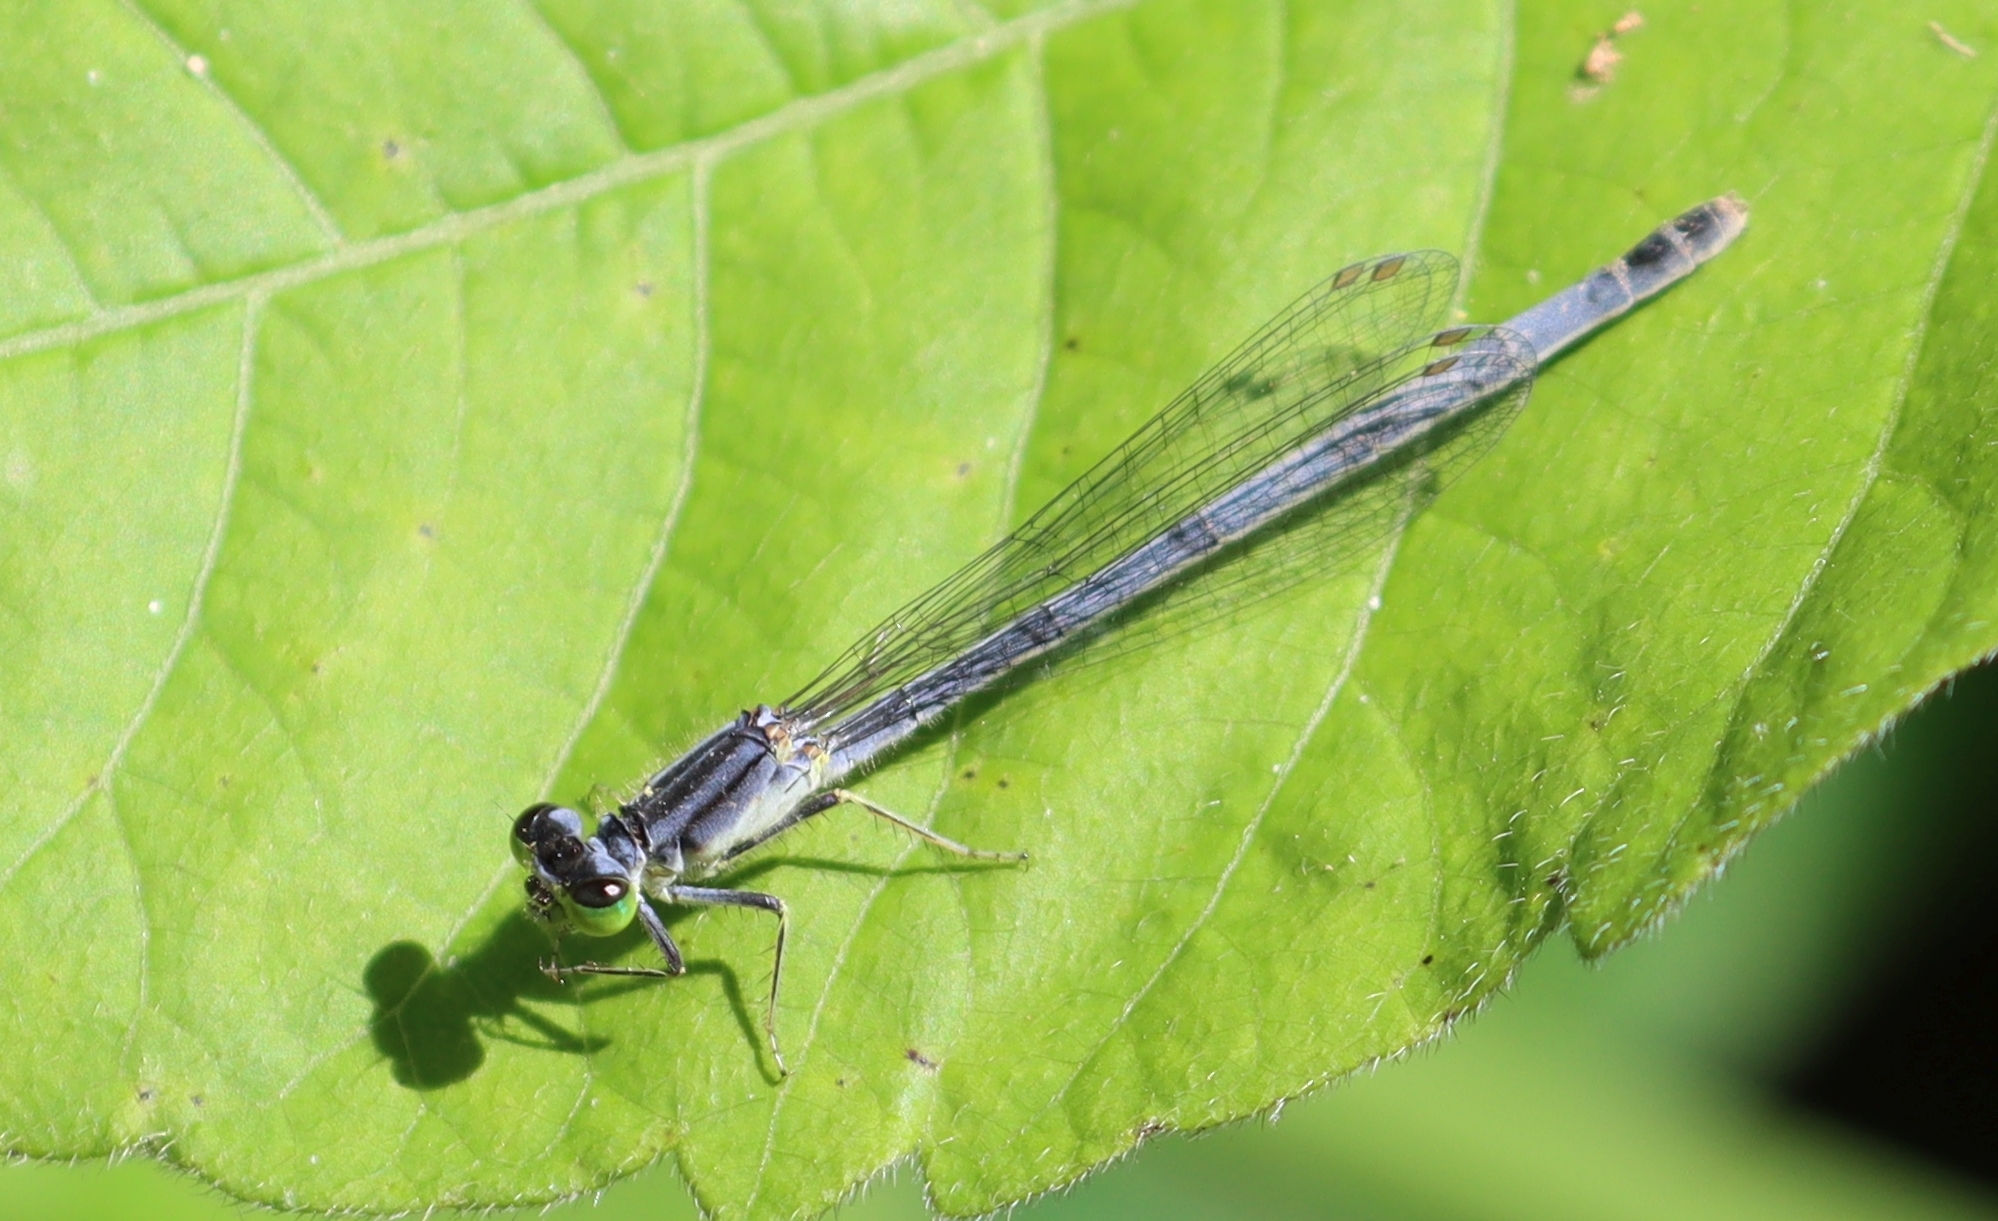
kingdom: Animalia
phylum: Arthropoda
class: Insecta
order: Odonata
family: Coenagrionidae
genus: Ischnura
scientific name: Ischnura verticalis
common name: Eastern forktail
